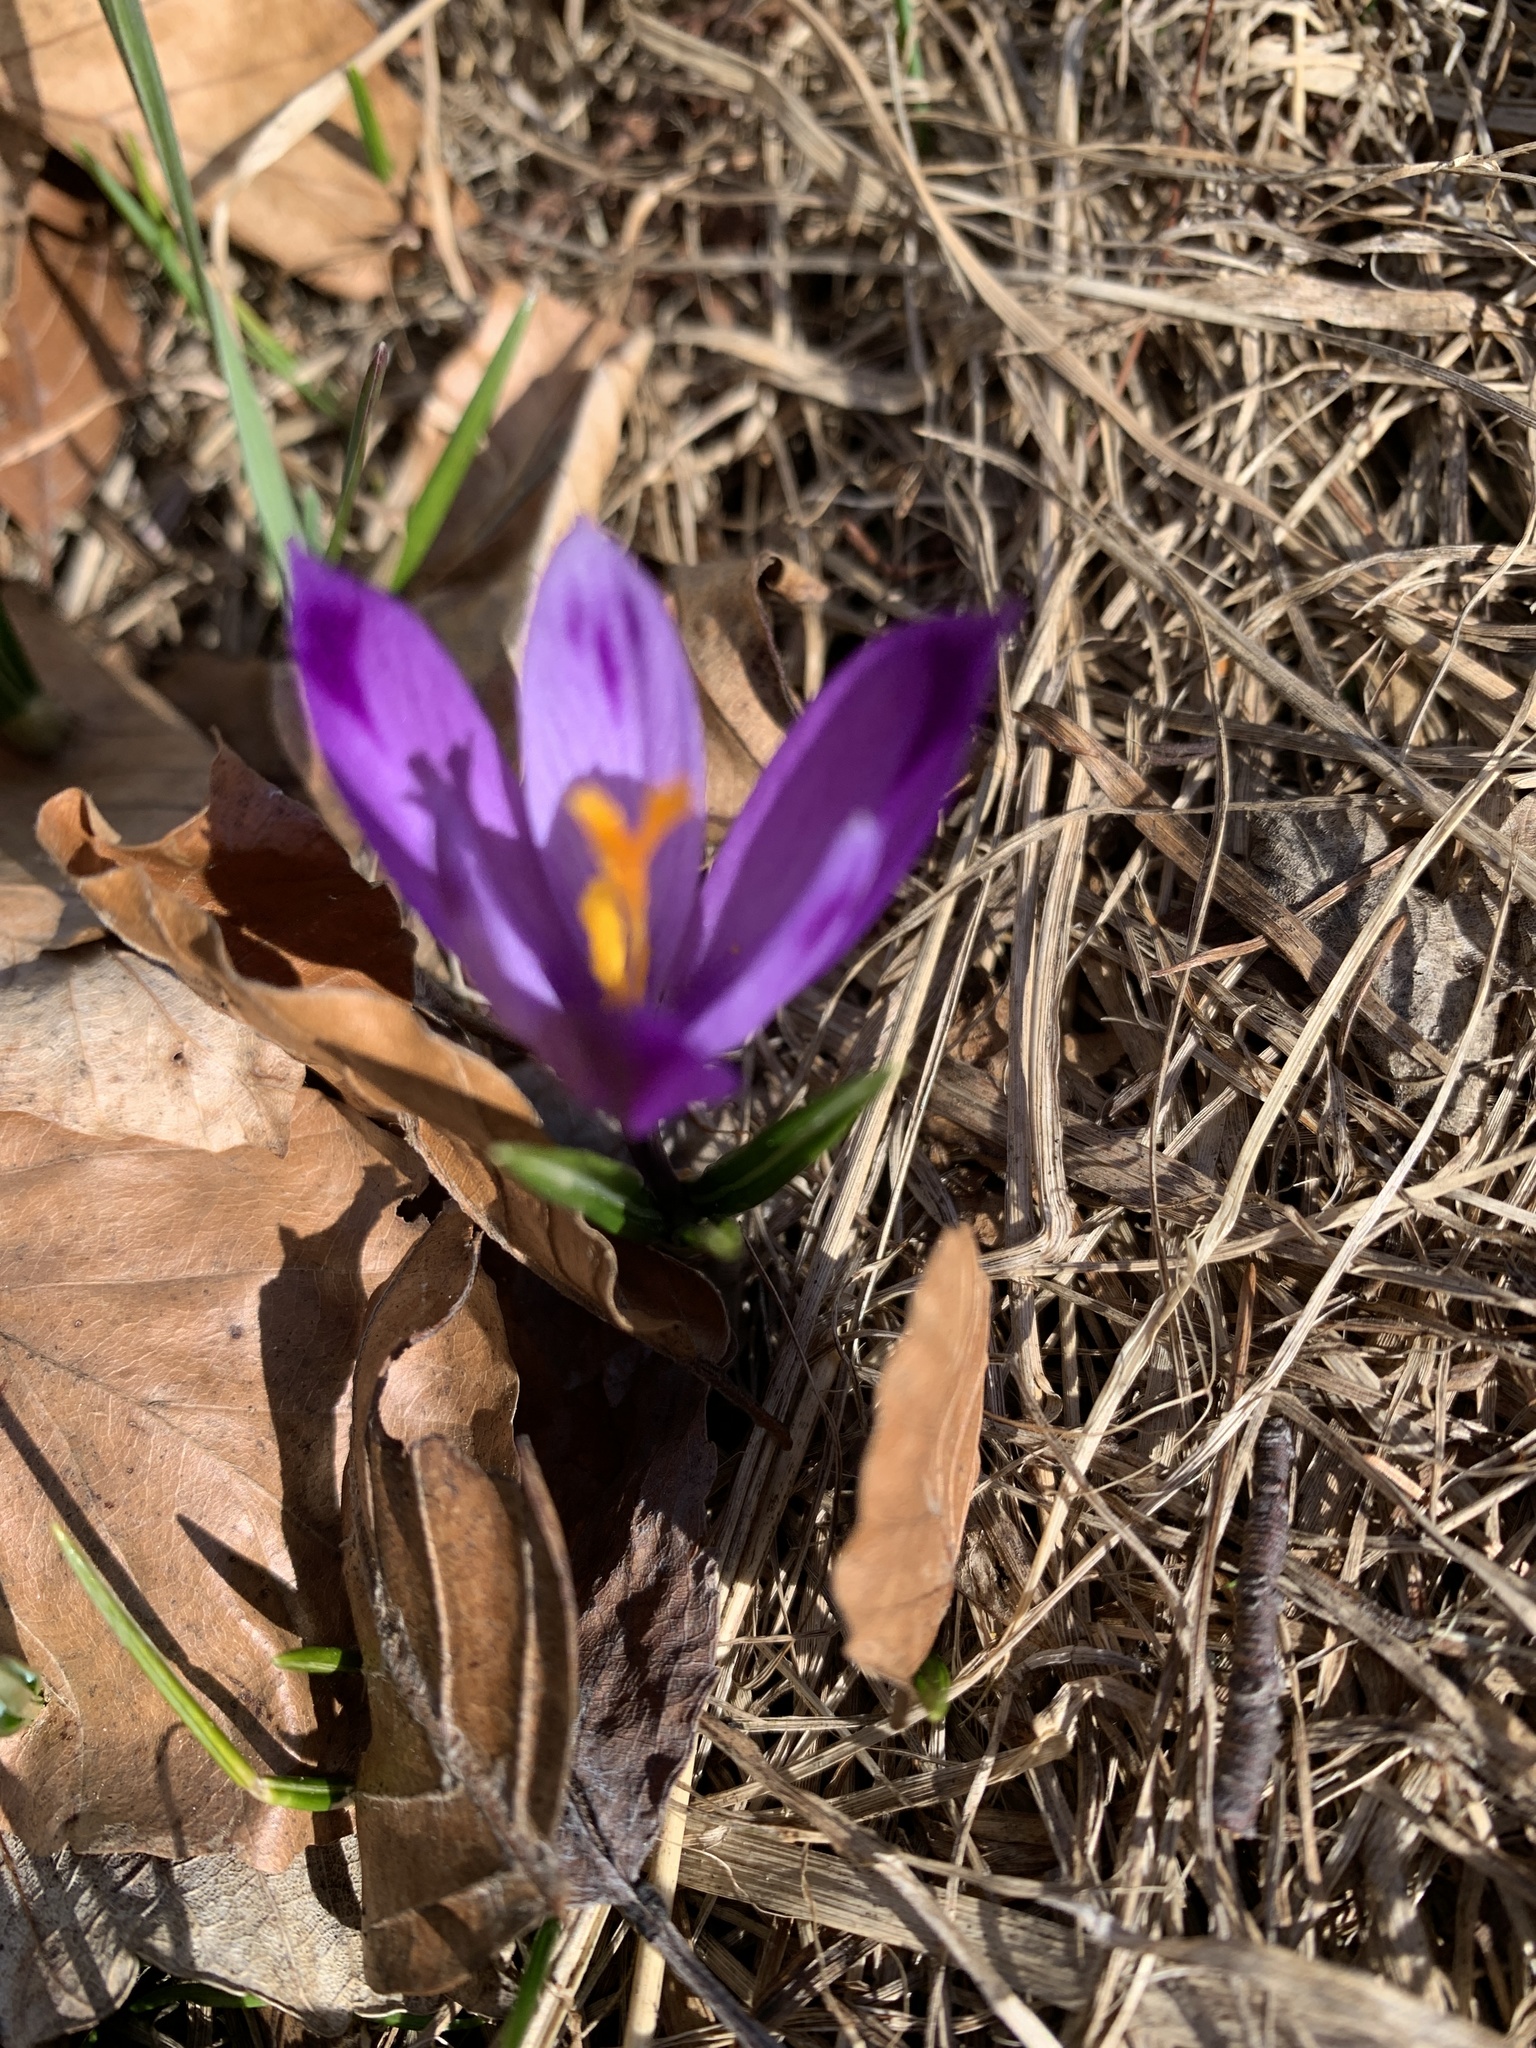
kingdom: Plantae
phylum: Tracheophyta
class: Liliopsida
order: Asparagales
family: Iridaceae
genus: Crocus
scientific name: Crocus heuffelianus
